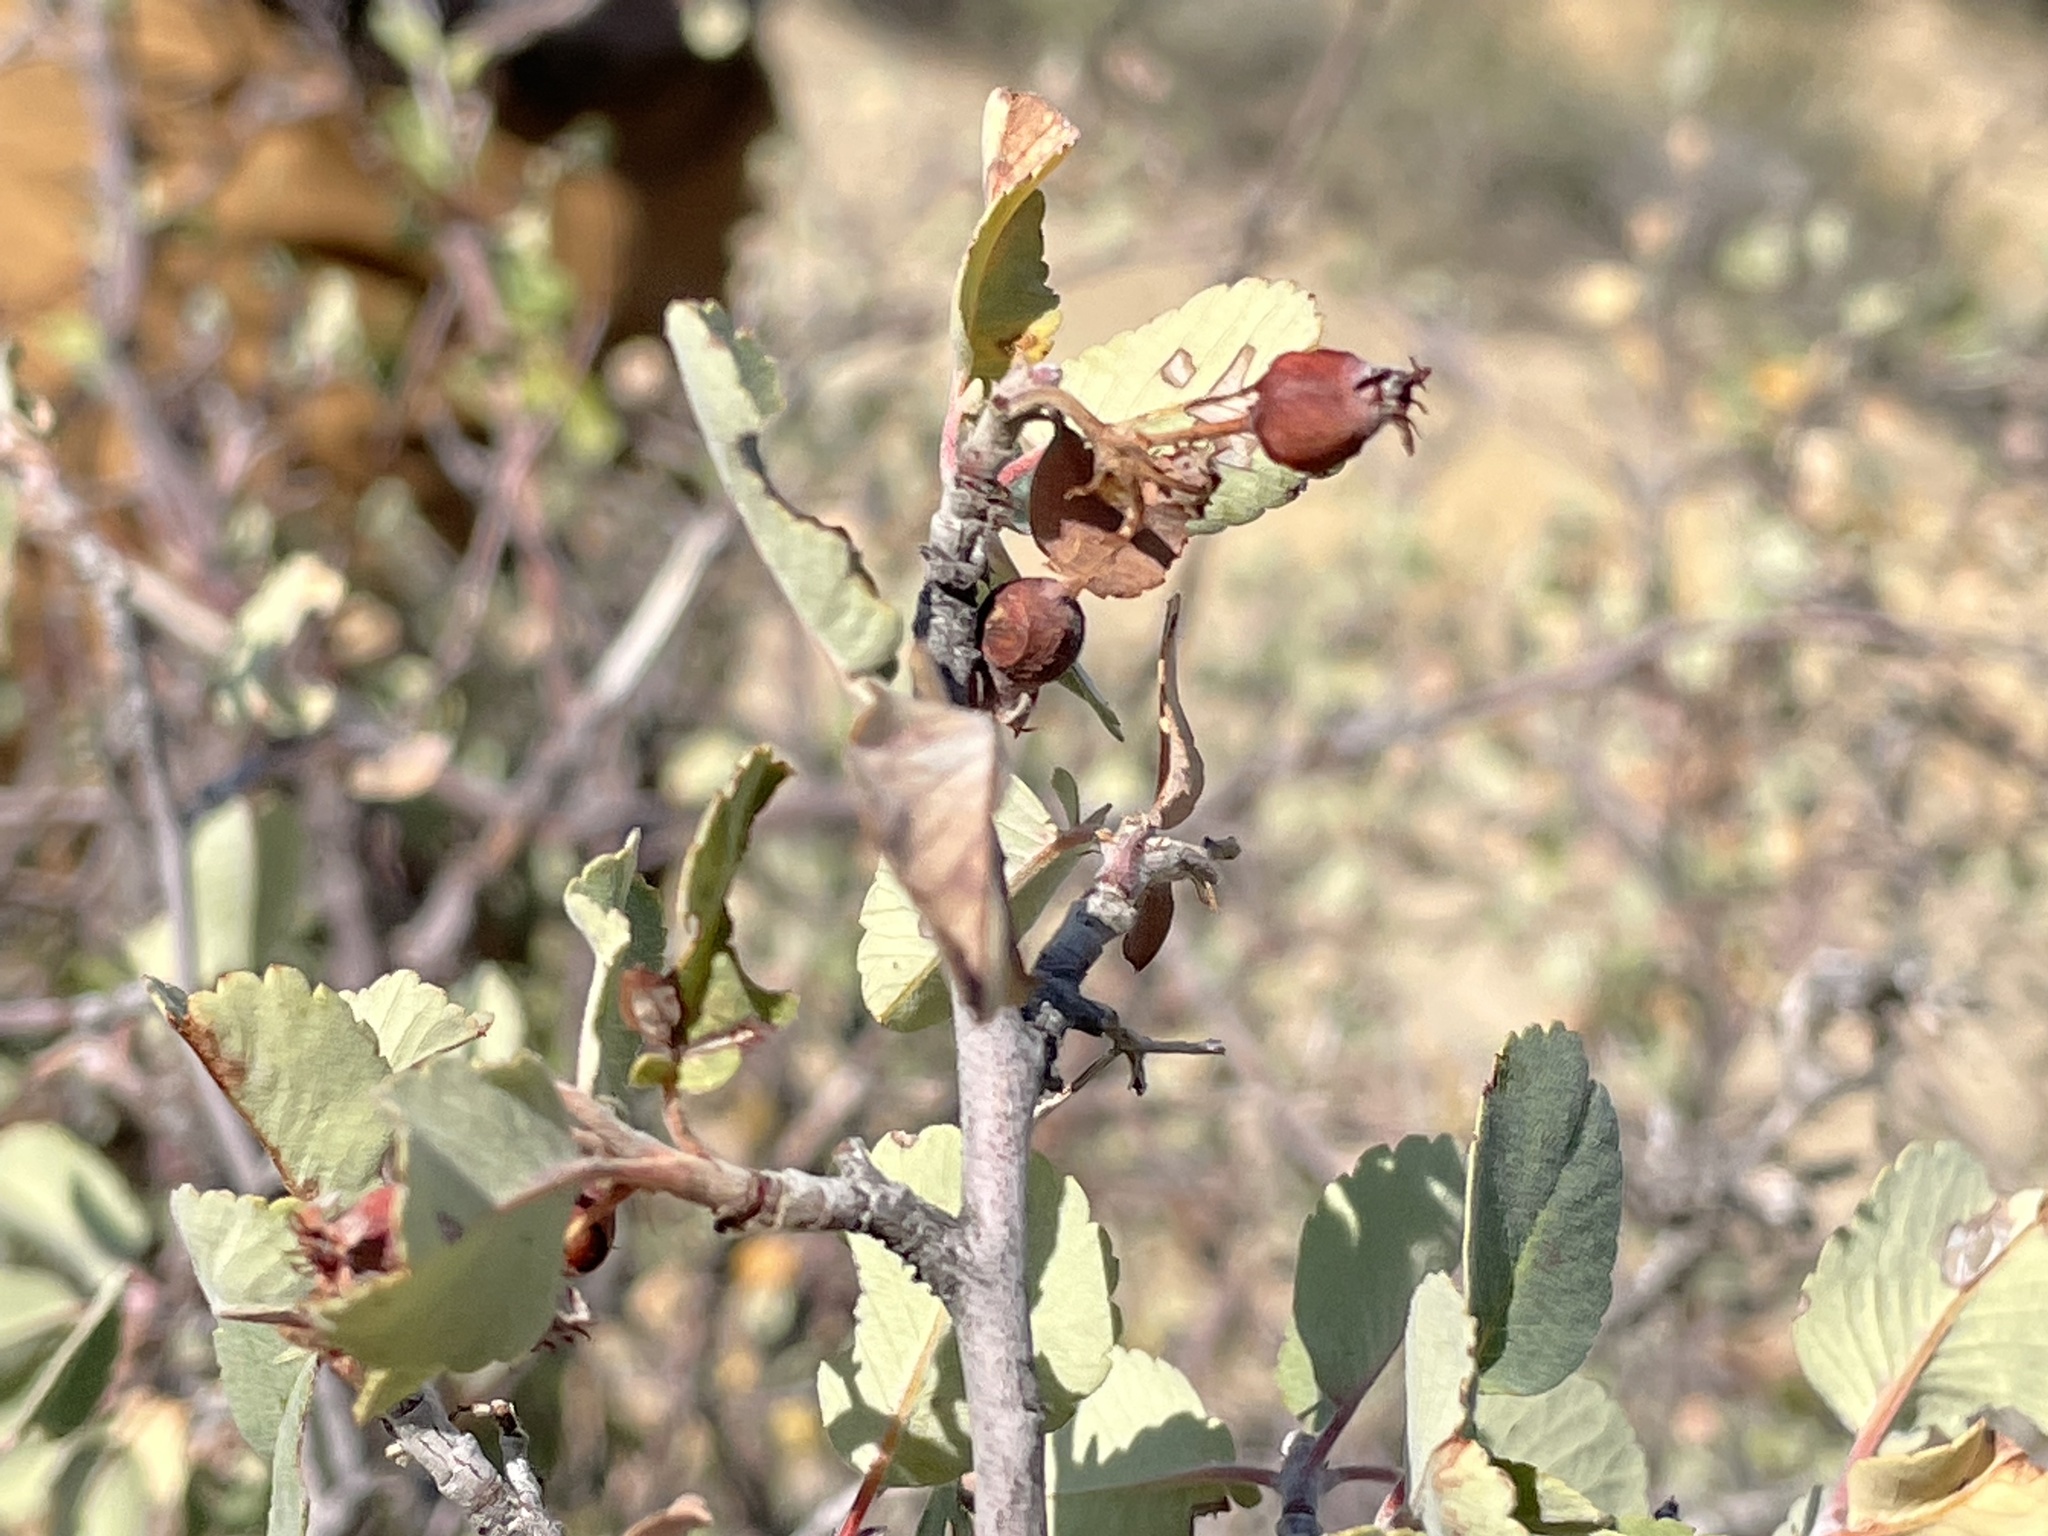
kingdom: Plantae
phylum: Tracheophyta
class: Magnoliopsida
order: Rosales
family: Rosaceae
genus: Amelanchier
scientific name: Amelanchier utahensis
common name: Utah serviceberry
